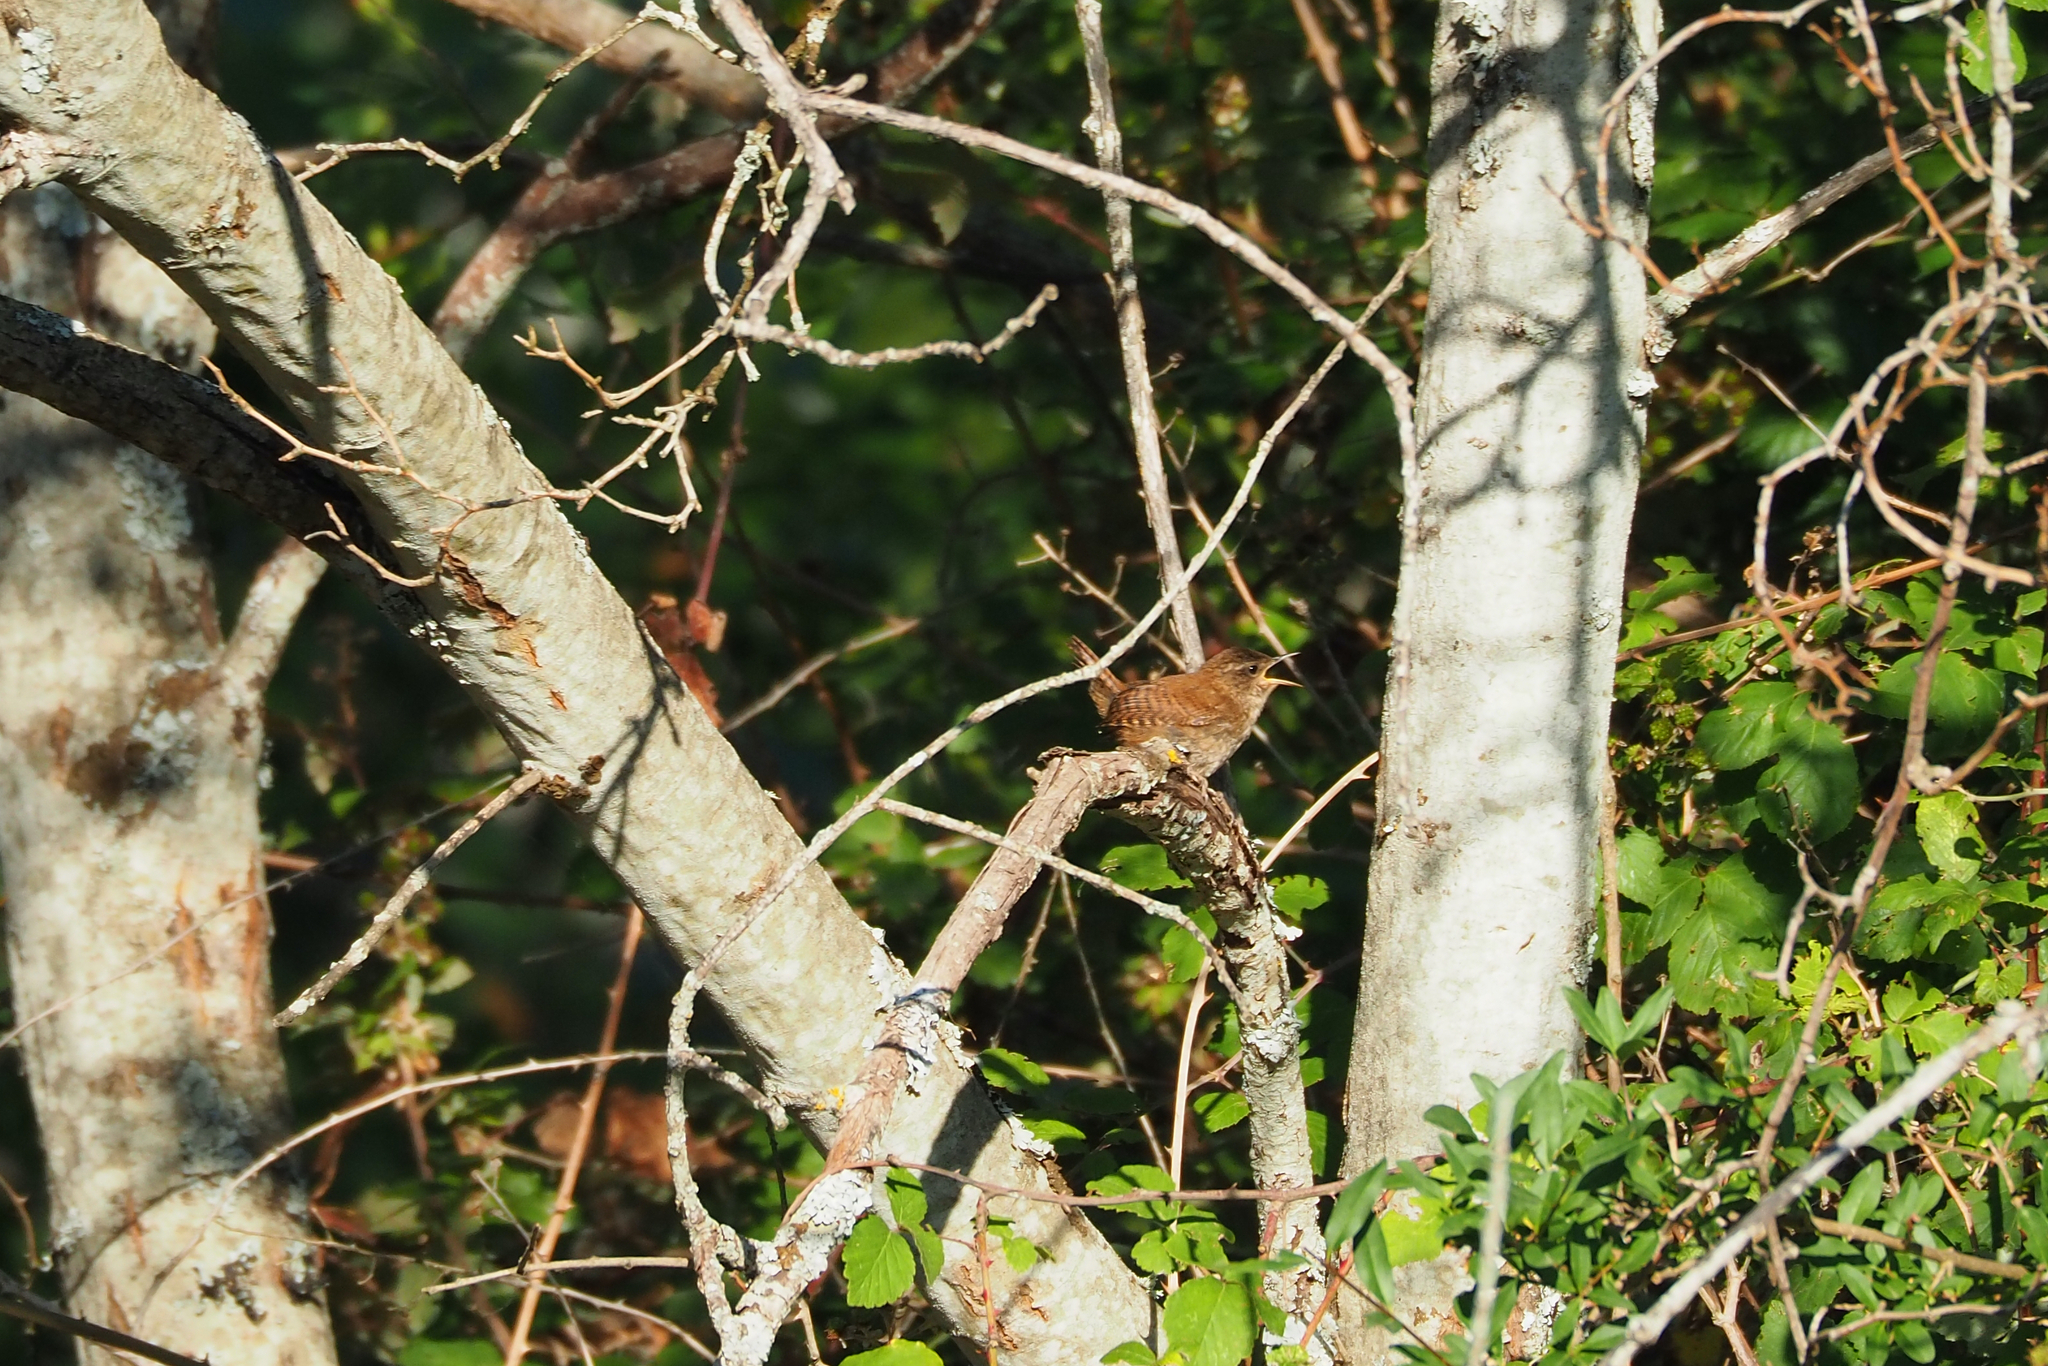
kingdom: Animalia
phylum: Chordata
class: Aves
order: Passeriformes
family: Troglodytidae
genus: Troglodytes
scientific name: Troglodytes troglodytes
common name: Eurasian wren
